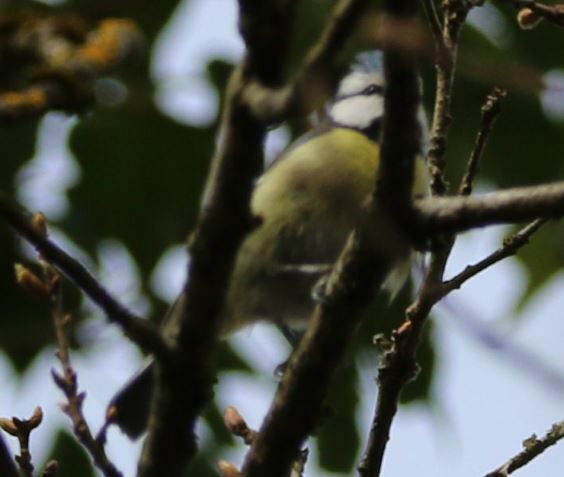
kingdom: Animalia
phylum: Chordata
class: Aves
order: Passeriformes
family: Paridae
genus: Cyanistes
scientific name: Cyanistes caeruleus
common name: Eurasian blue tit
